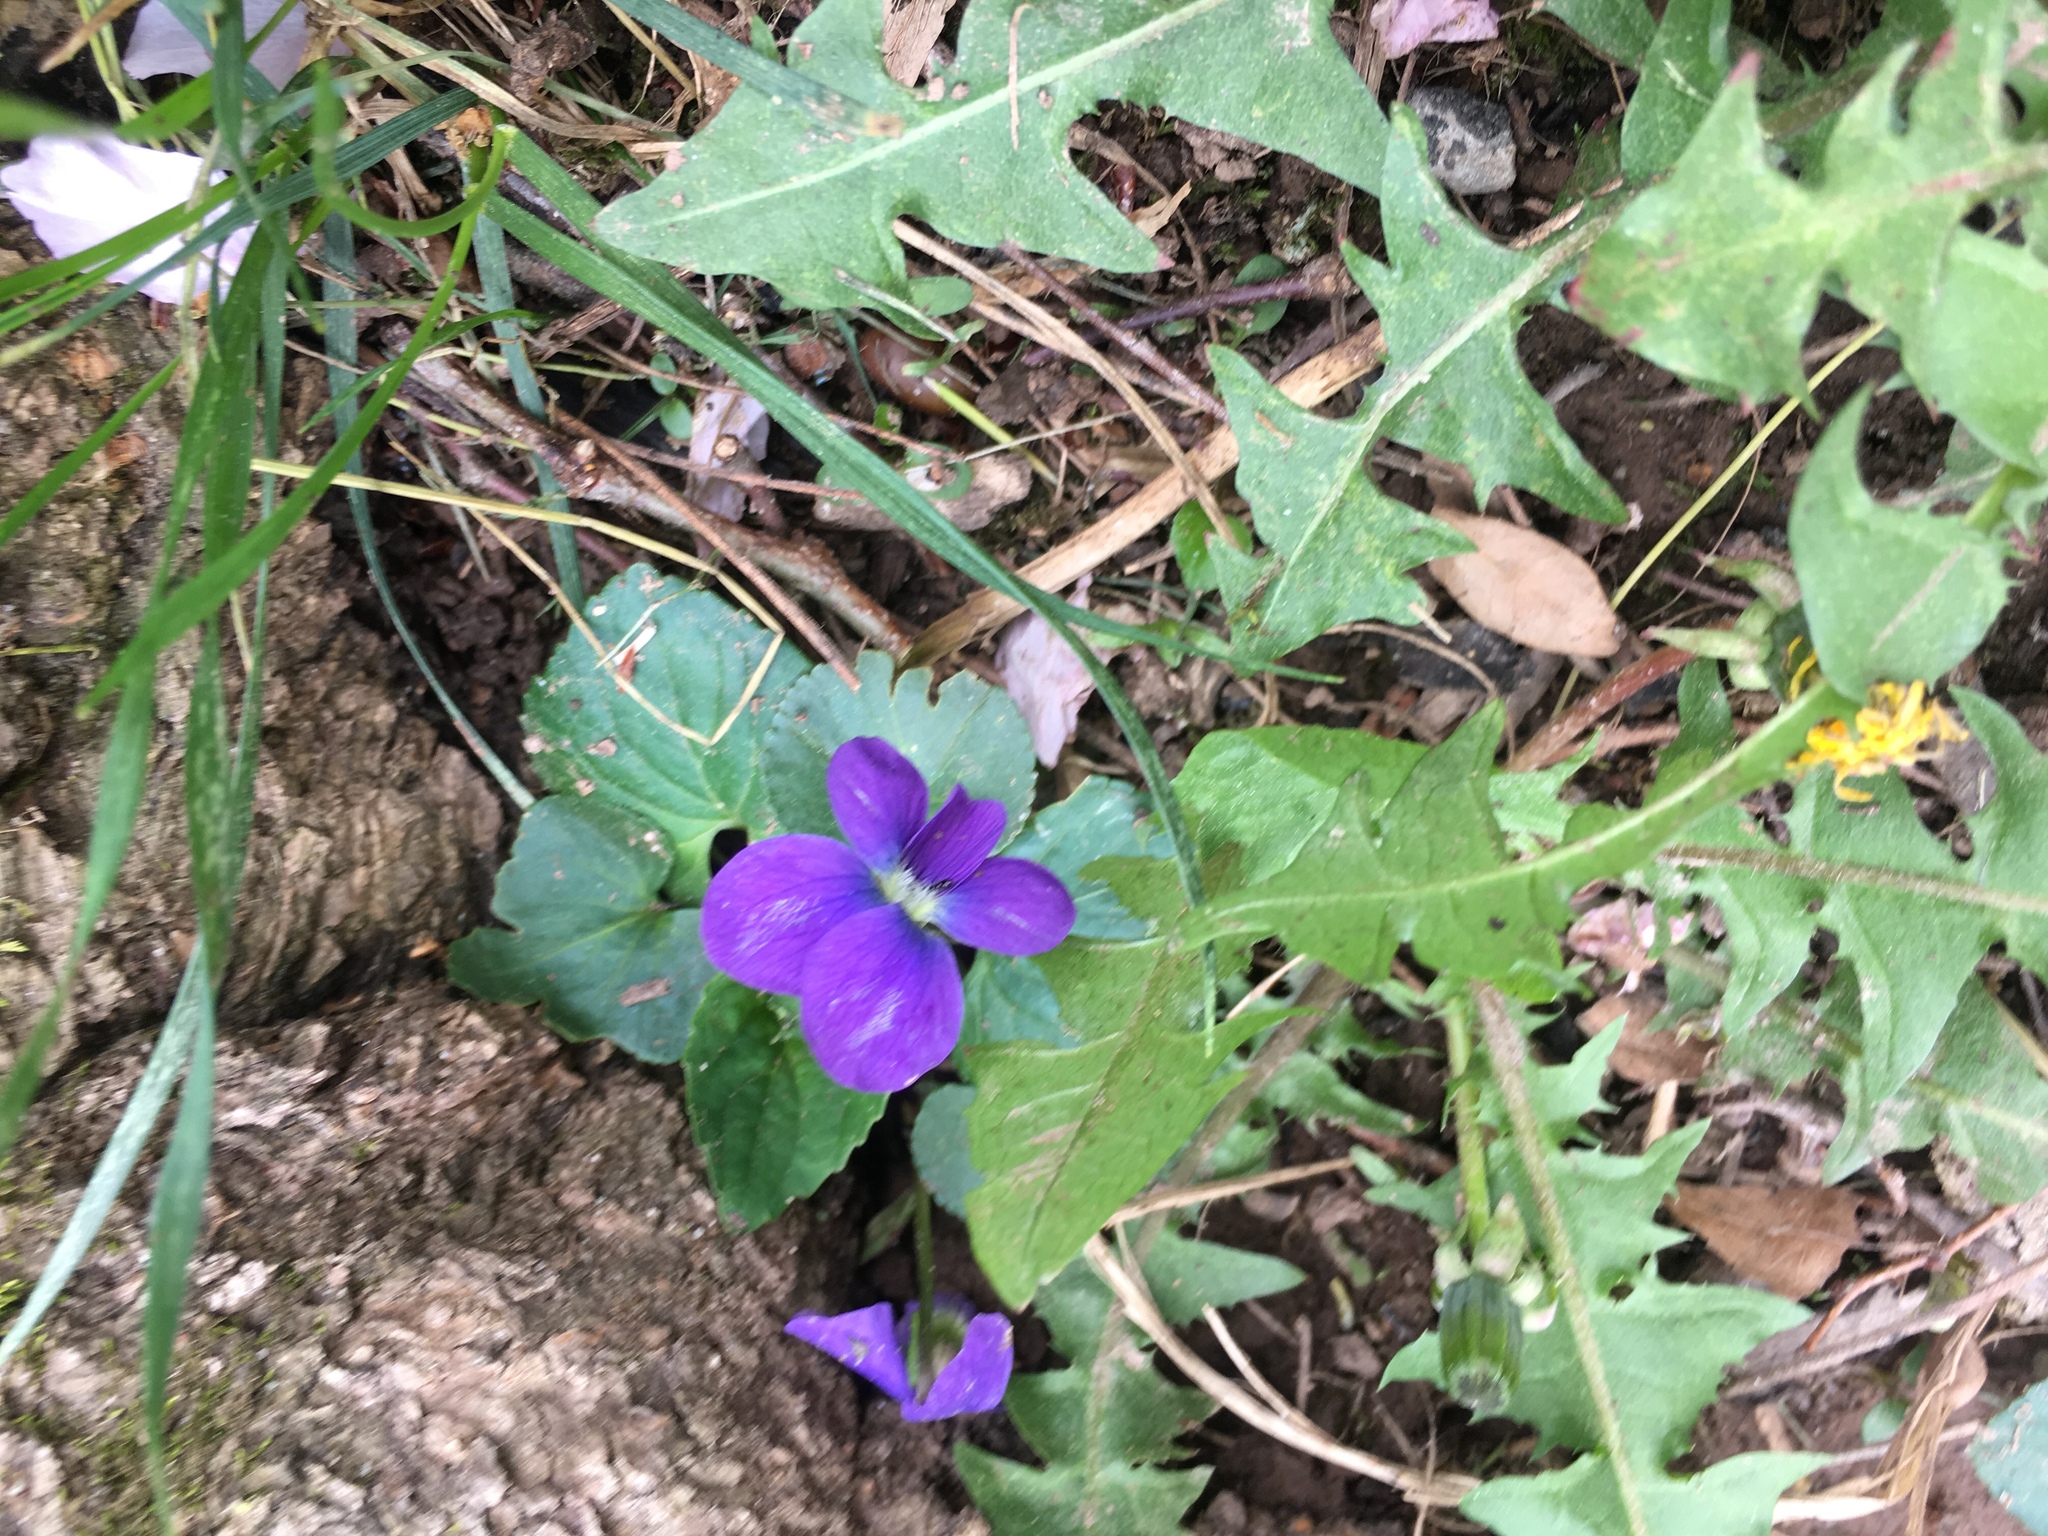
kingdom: Plantae
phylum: Tracheophyta
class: Magnoliopsida
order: Malpighiales
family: Violaceae
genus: Viola
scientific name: Viola sororia
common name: Dooryard violet
